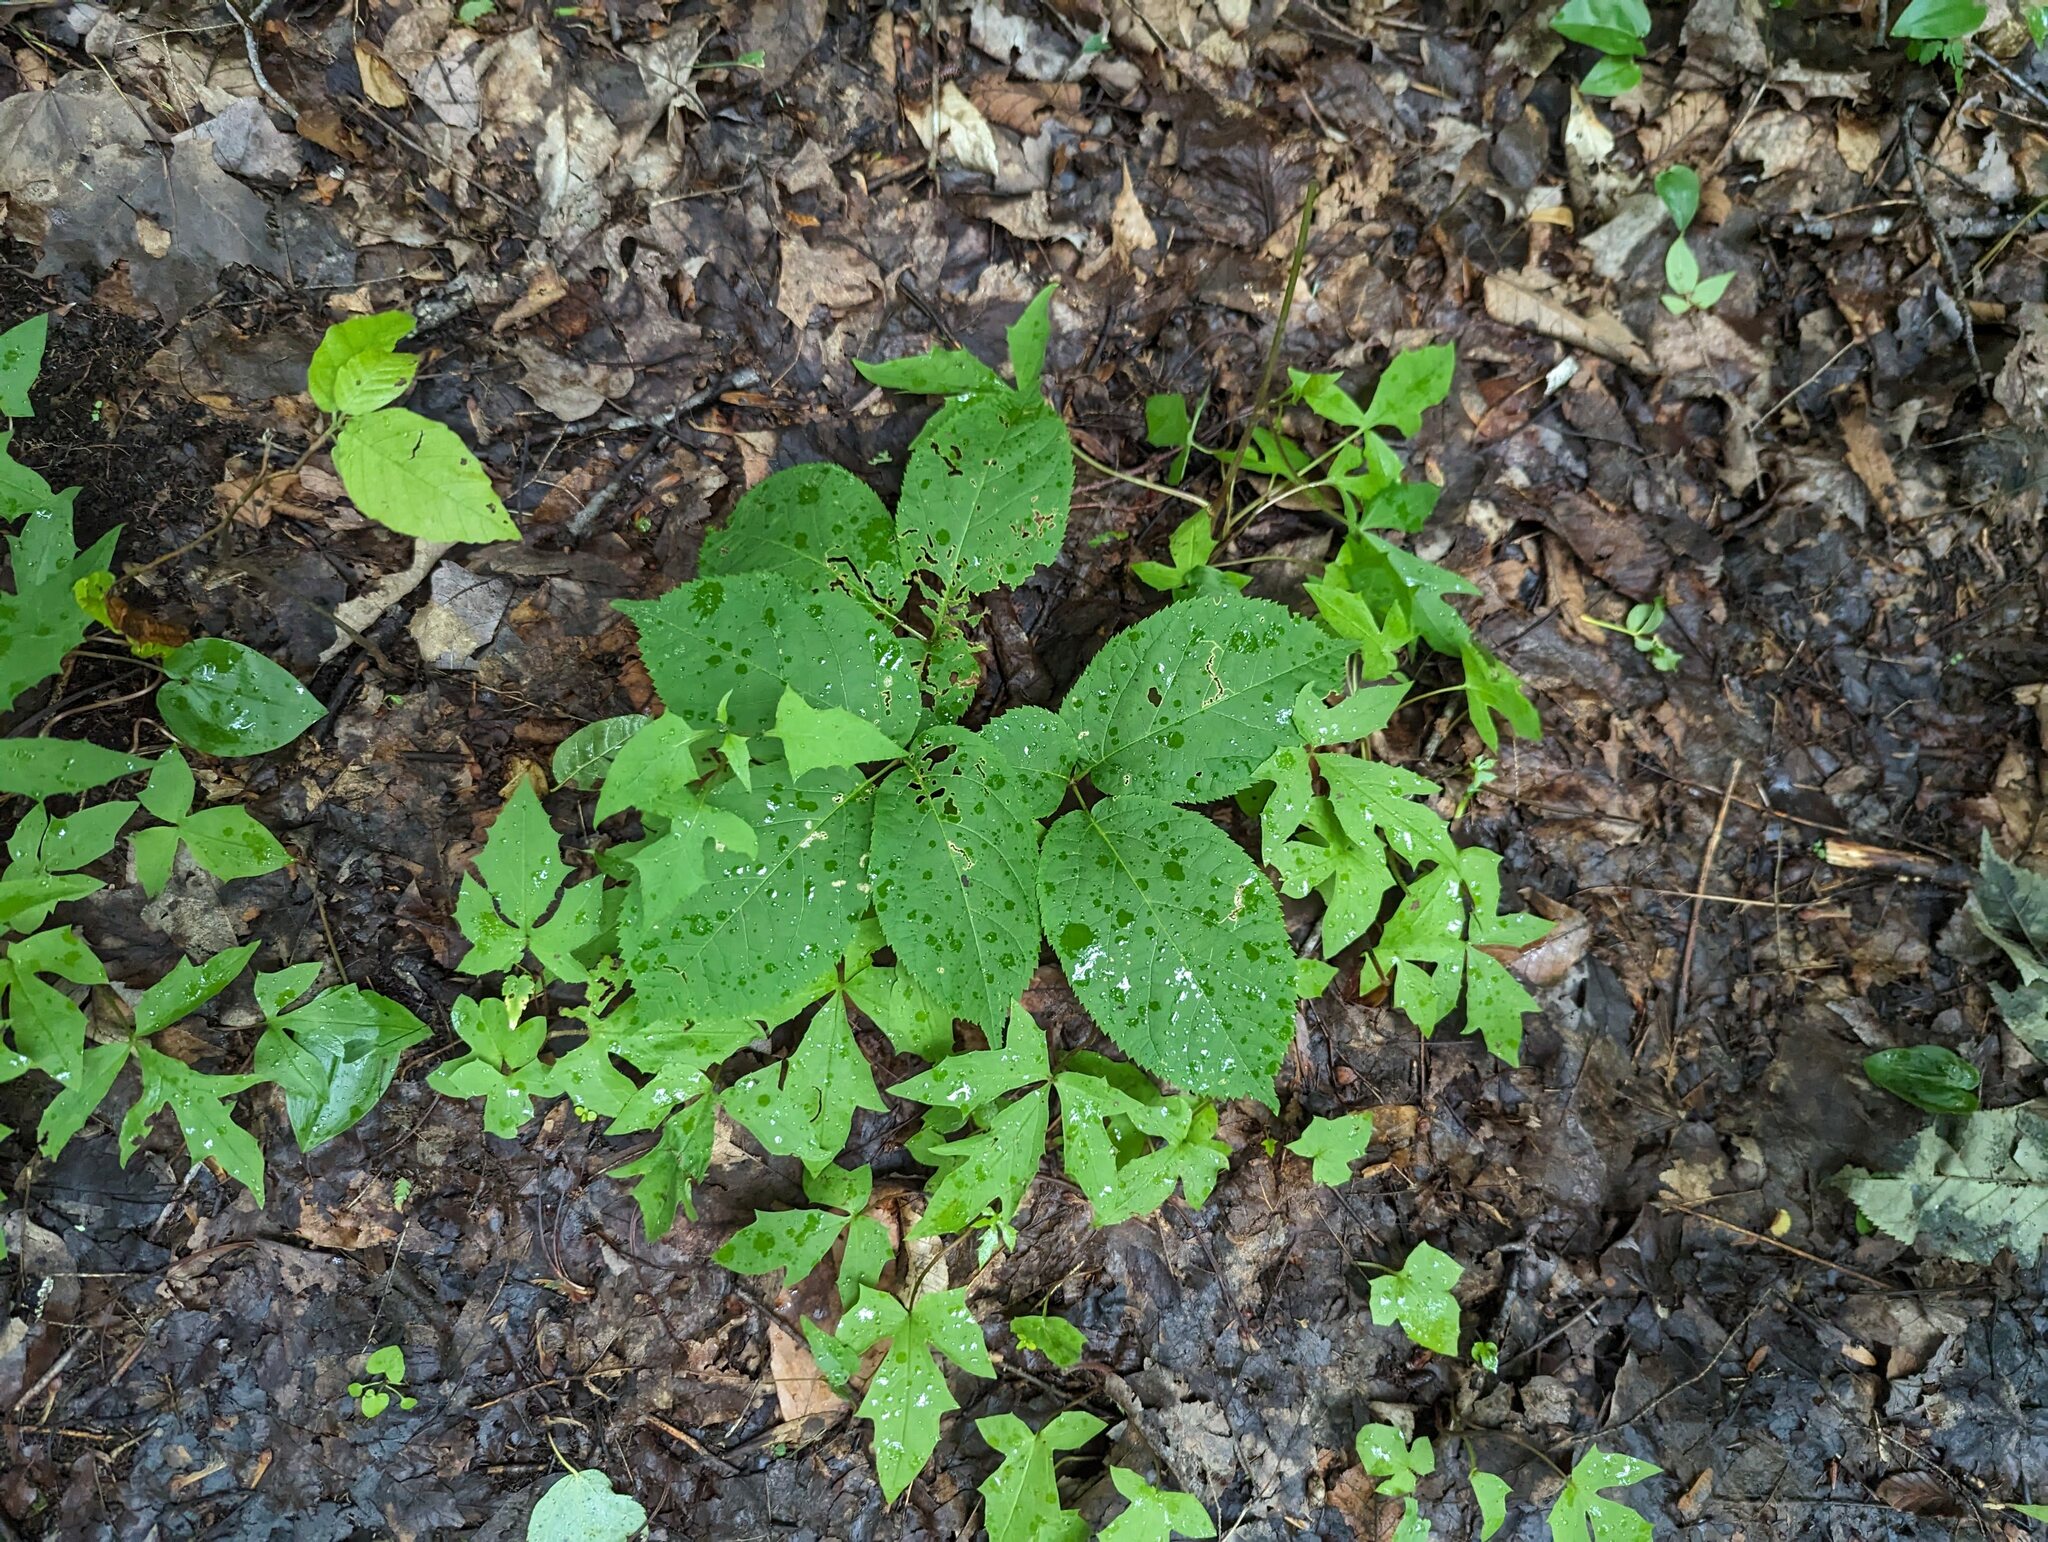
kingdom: Plantae
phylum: Tracheophyta
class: Magnoliopsida
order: Apiales
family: Araliaceae
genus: Aralia
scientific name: Aralia nudicaulis
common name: Wild sarsaparilla
